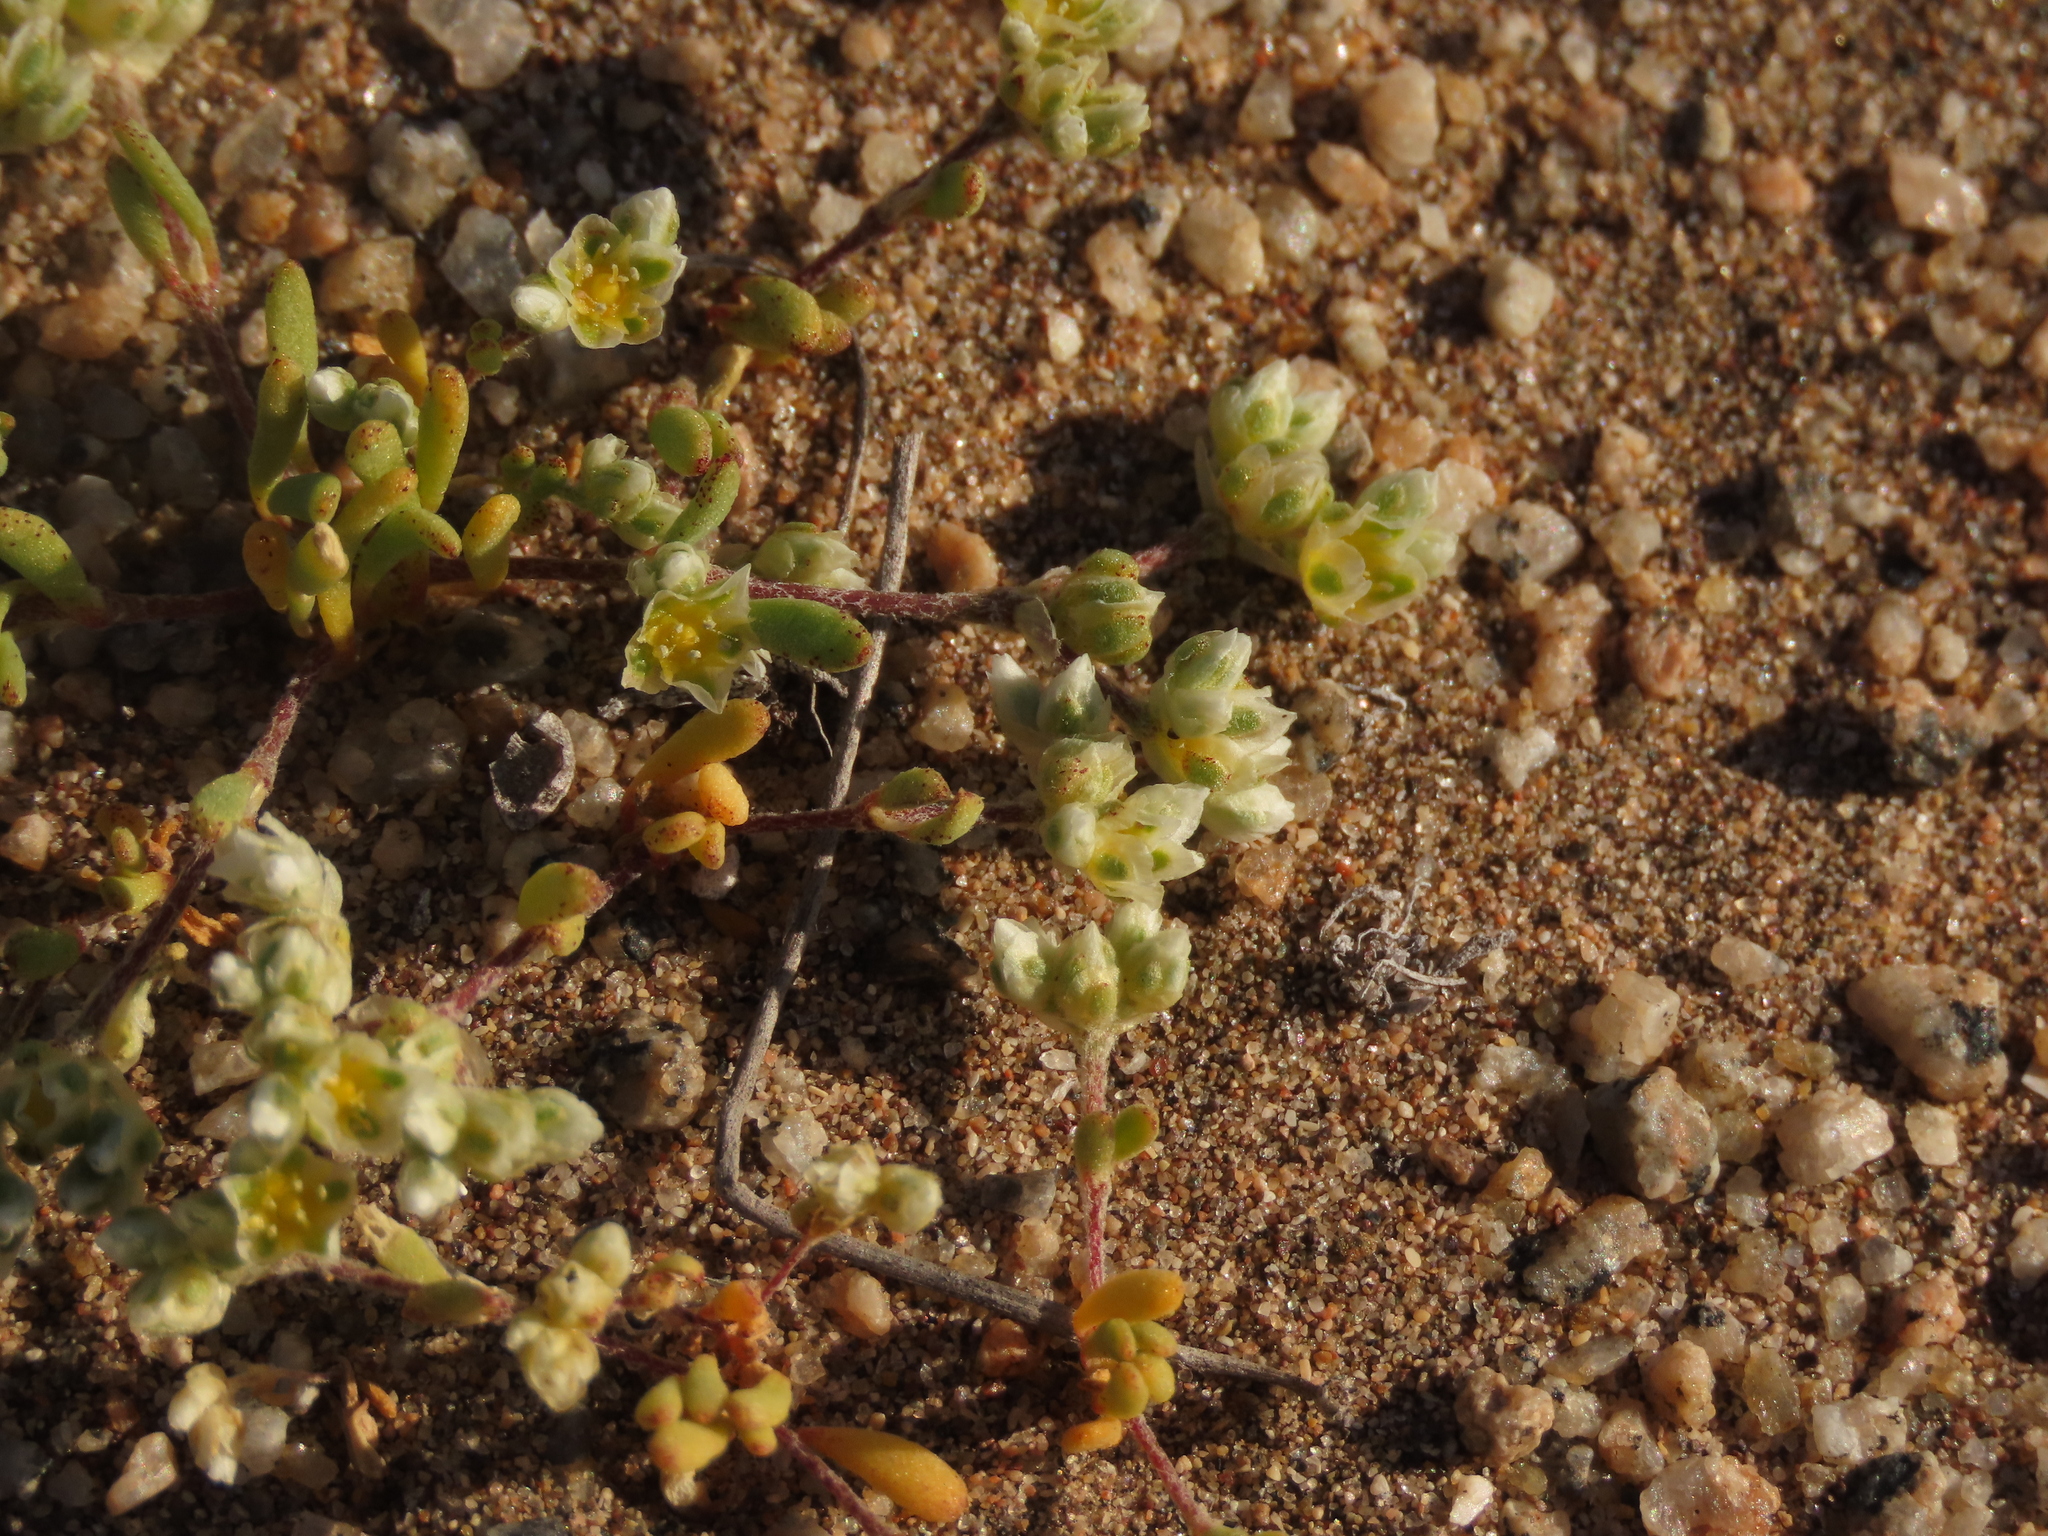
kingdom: Plantae
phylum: Tracheophyta
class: Magnoliopsida
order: Caryophyllales
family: Caryophyllaceae
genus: Microphyes
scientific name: Microphyes litoralis
